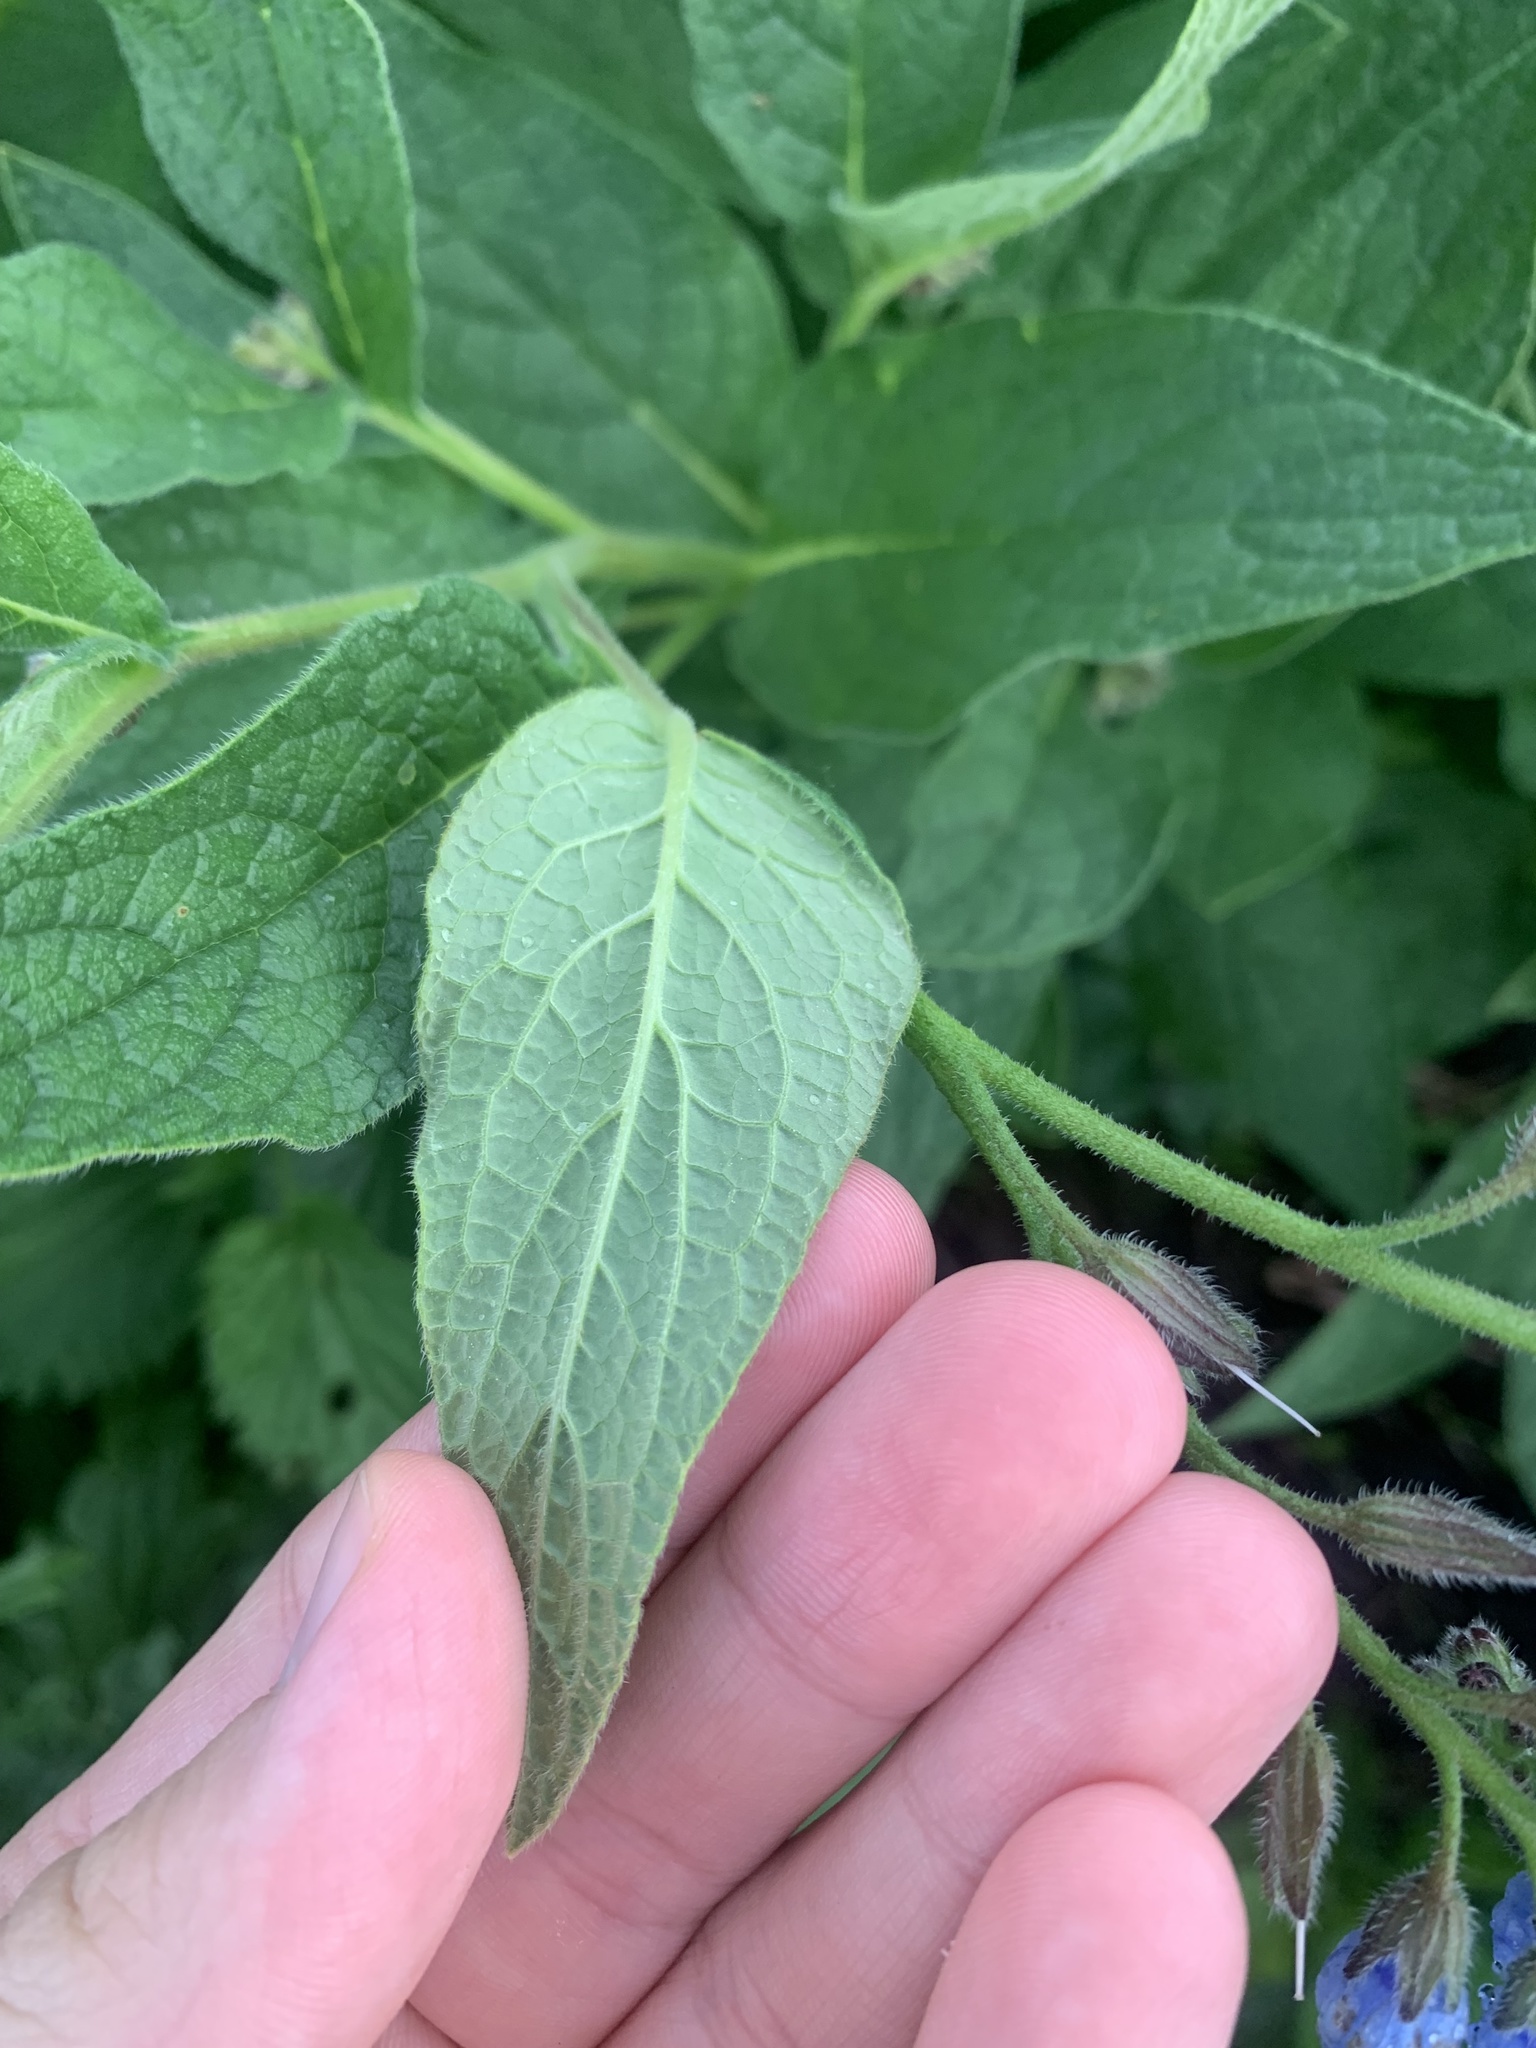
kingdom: Plantae
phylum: Tracheophyta
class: Magnoliopsida
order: Boraginales
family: Boraginaceae
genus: Symphytum
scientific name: Symphytum caucasicum
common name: Caucasian comfrey
